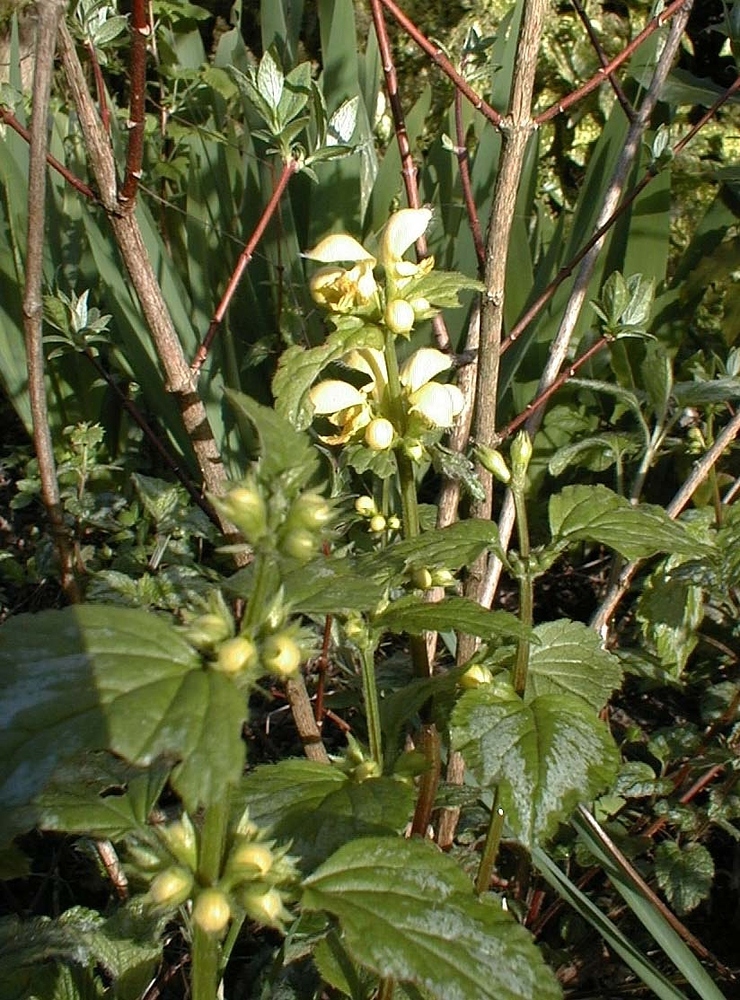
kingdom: Plantae
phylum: Tracheophyta
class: Magnoliopsida
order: Lamiales
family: Lamiaceae
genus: Lamium
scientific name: Lamium galeobdolon
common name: Yellow archangel
